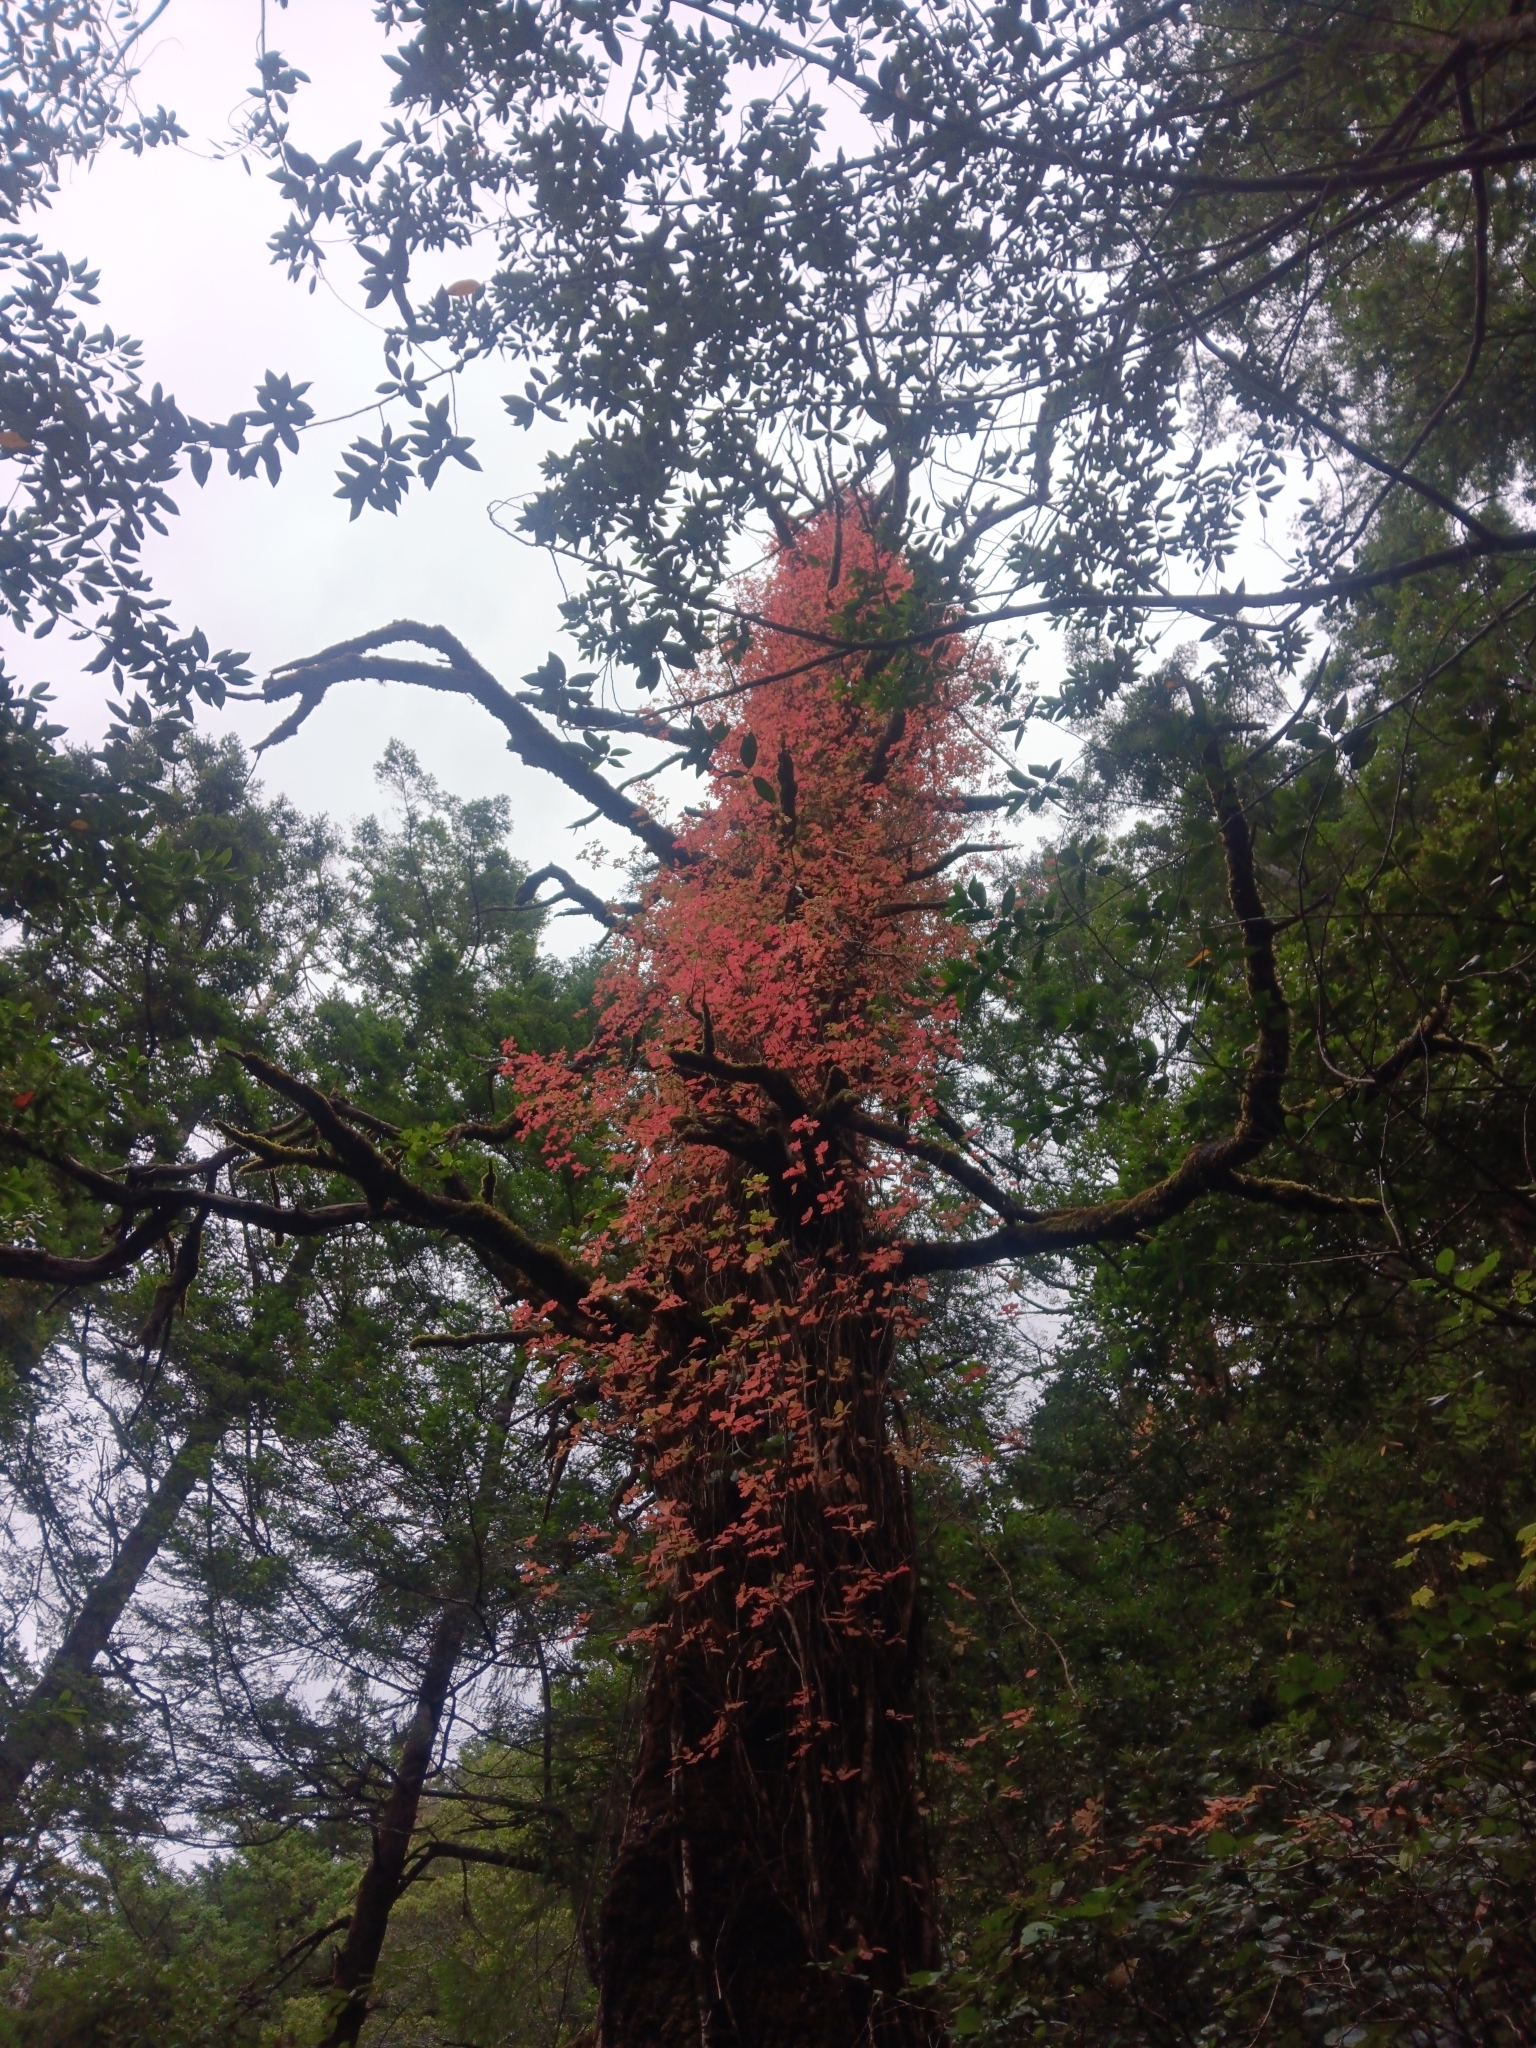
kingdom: Plantae
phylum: Tracheophyta
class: Magnoliopsida
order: Sapindales
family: Anacardiaceae
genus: Toxicodendron
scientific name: Toxicodendron diversilobum
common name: Pacific poison-oak
